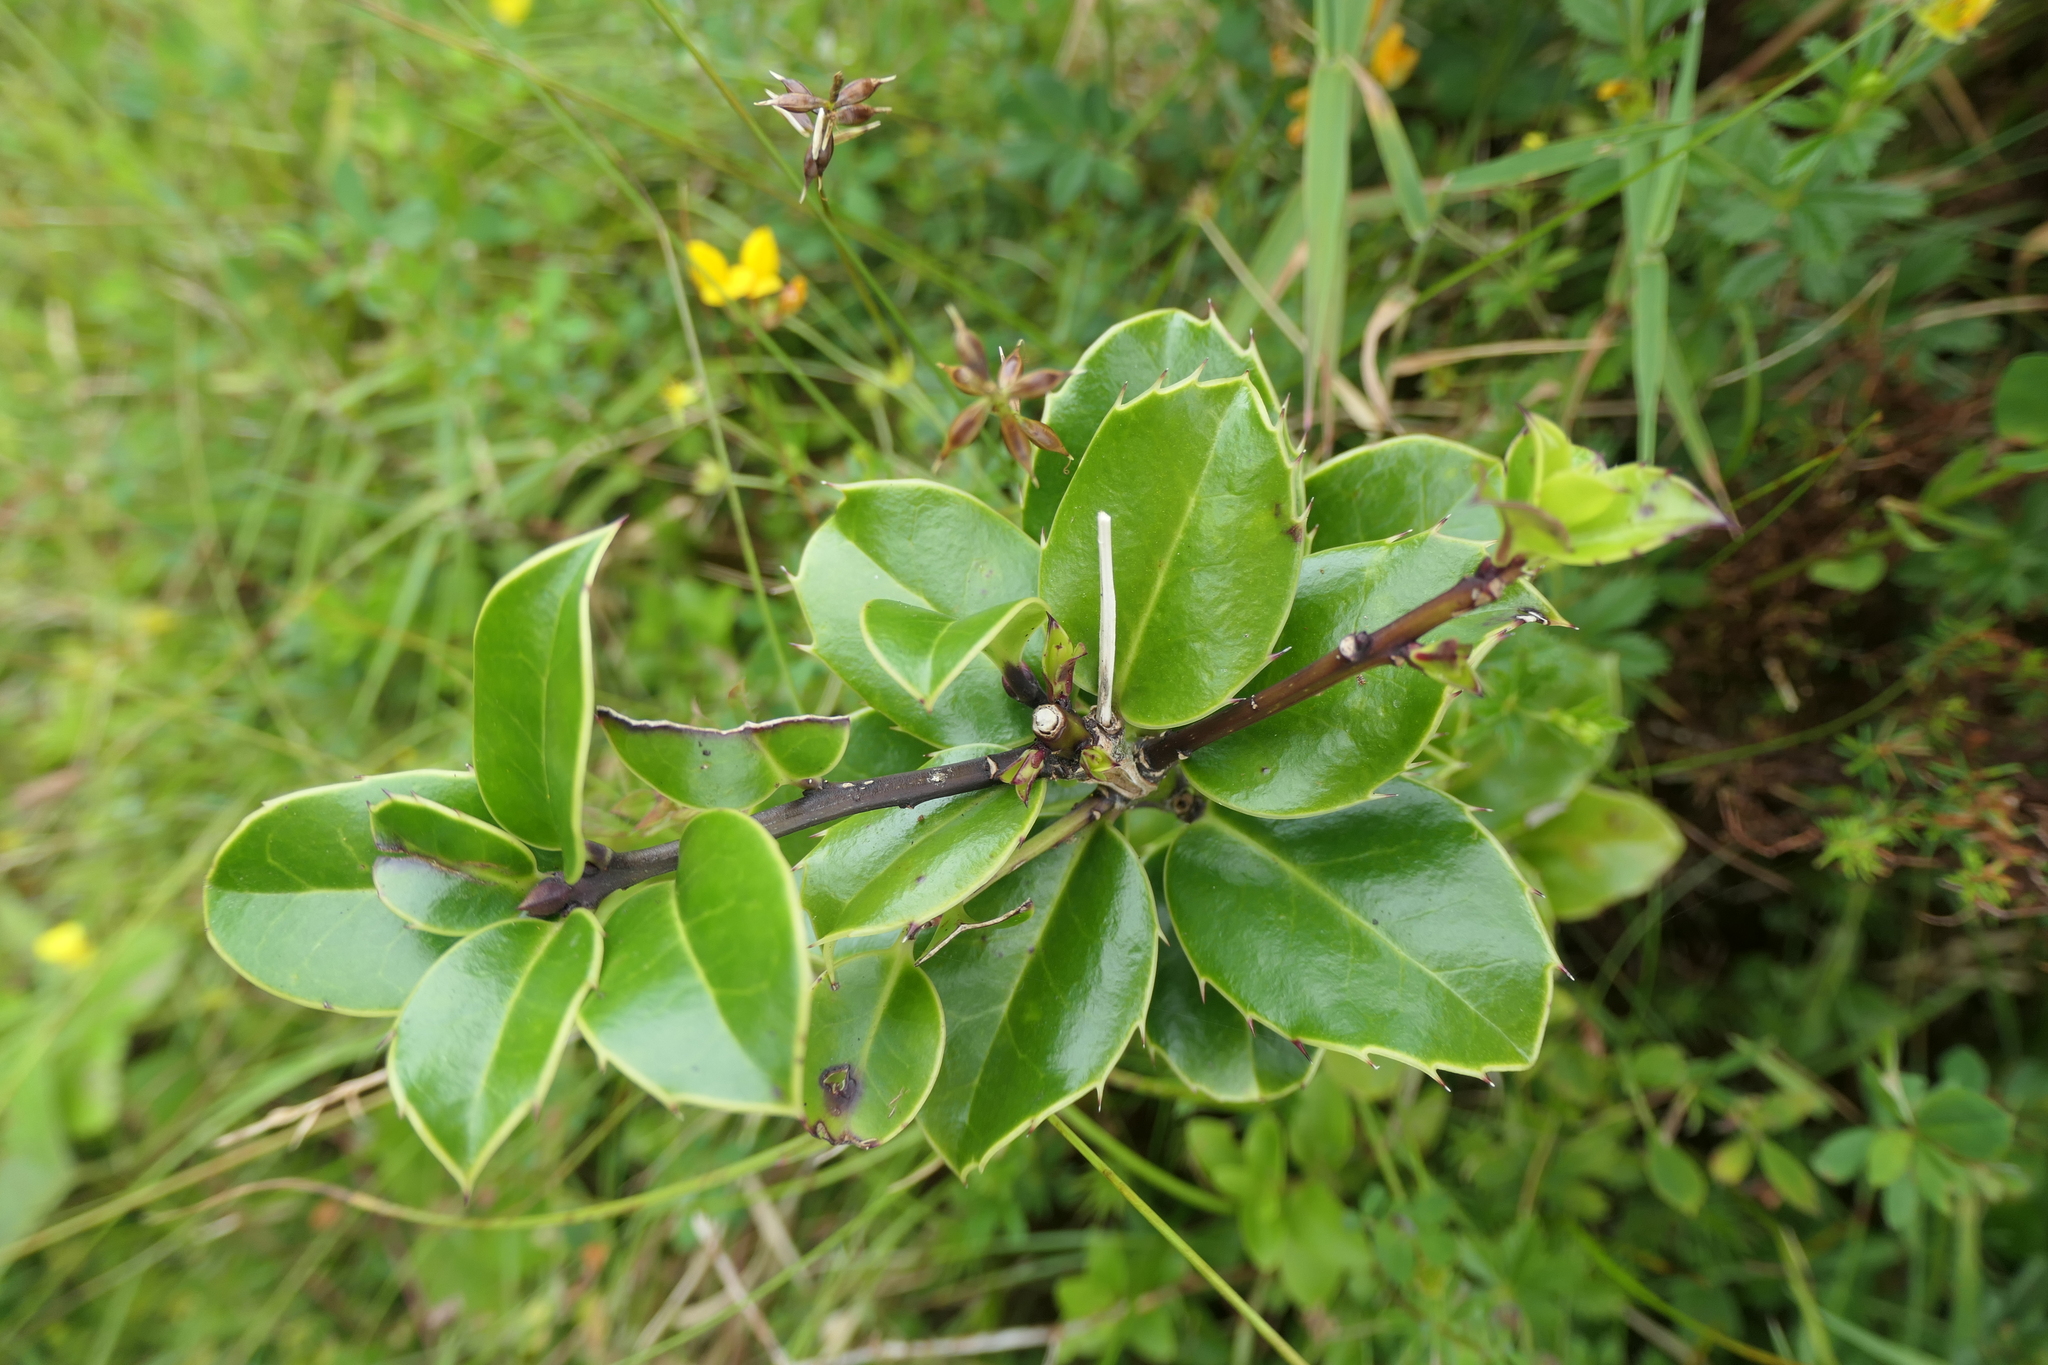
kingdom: Plantae
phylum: Tracheophyta
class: Magnoliopsida
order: Aquifoliales
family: Aquifoliaceae
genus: Ilex
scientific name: Ilex perado
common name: Madeira holly
